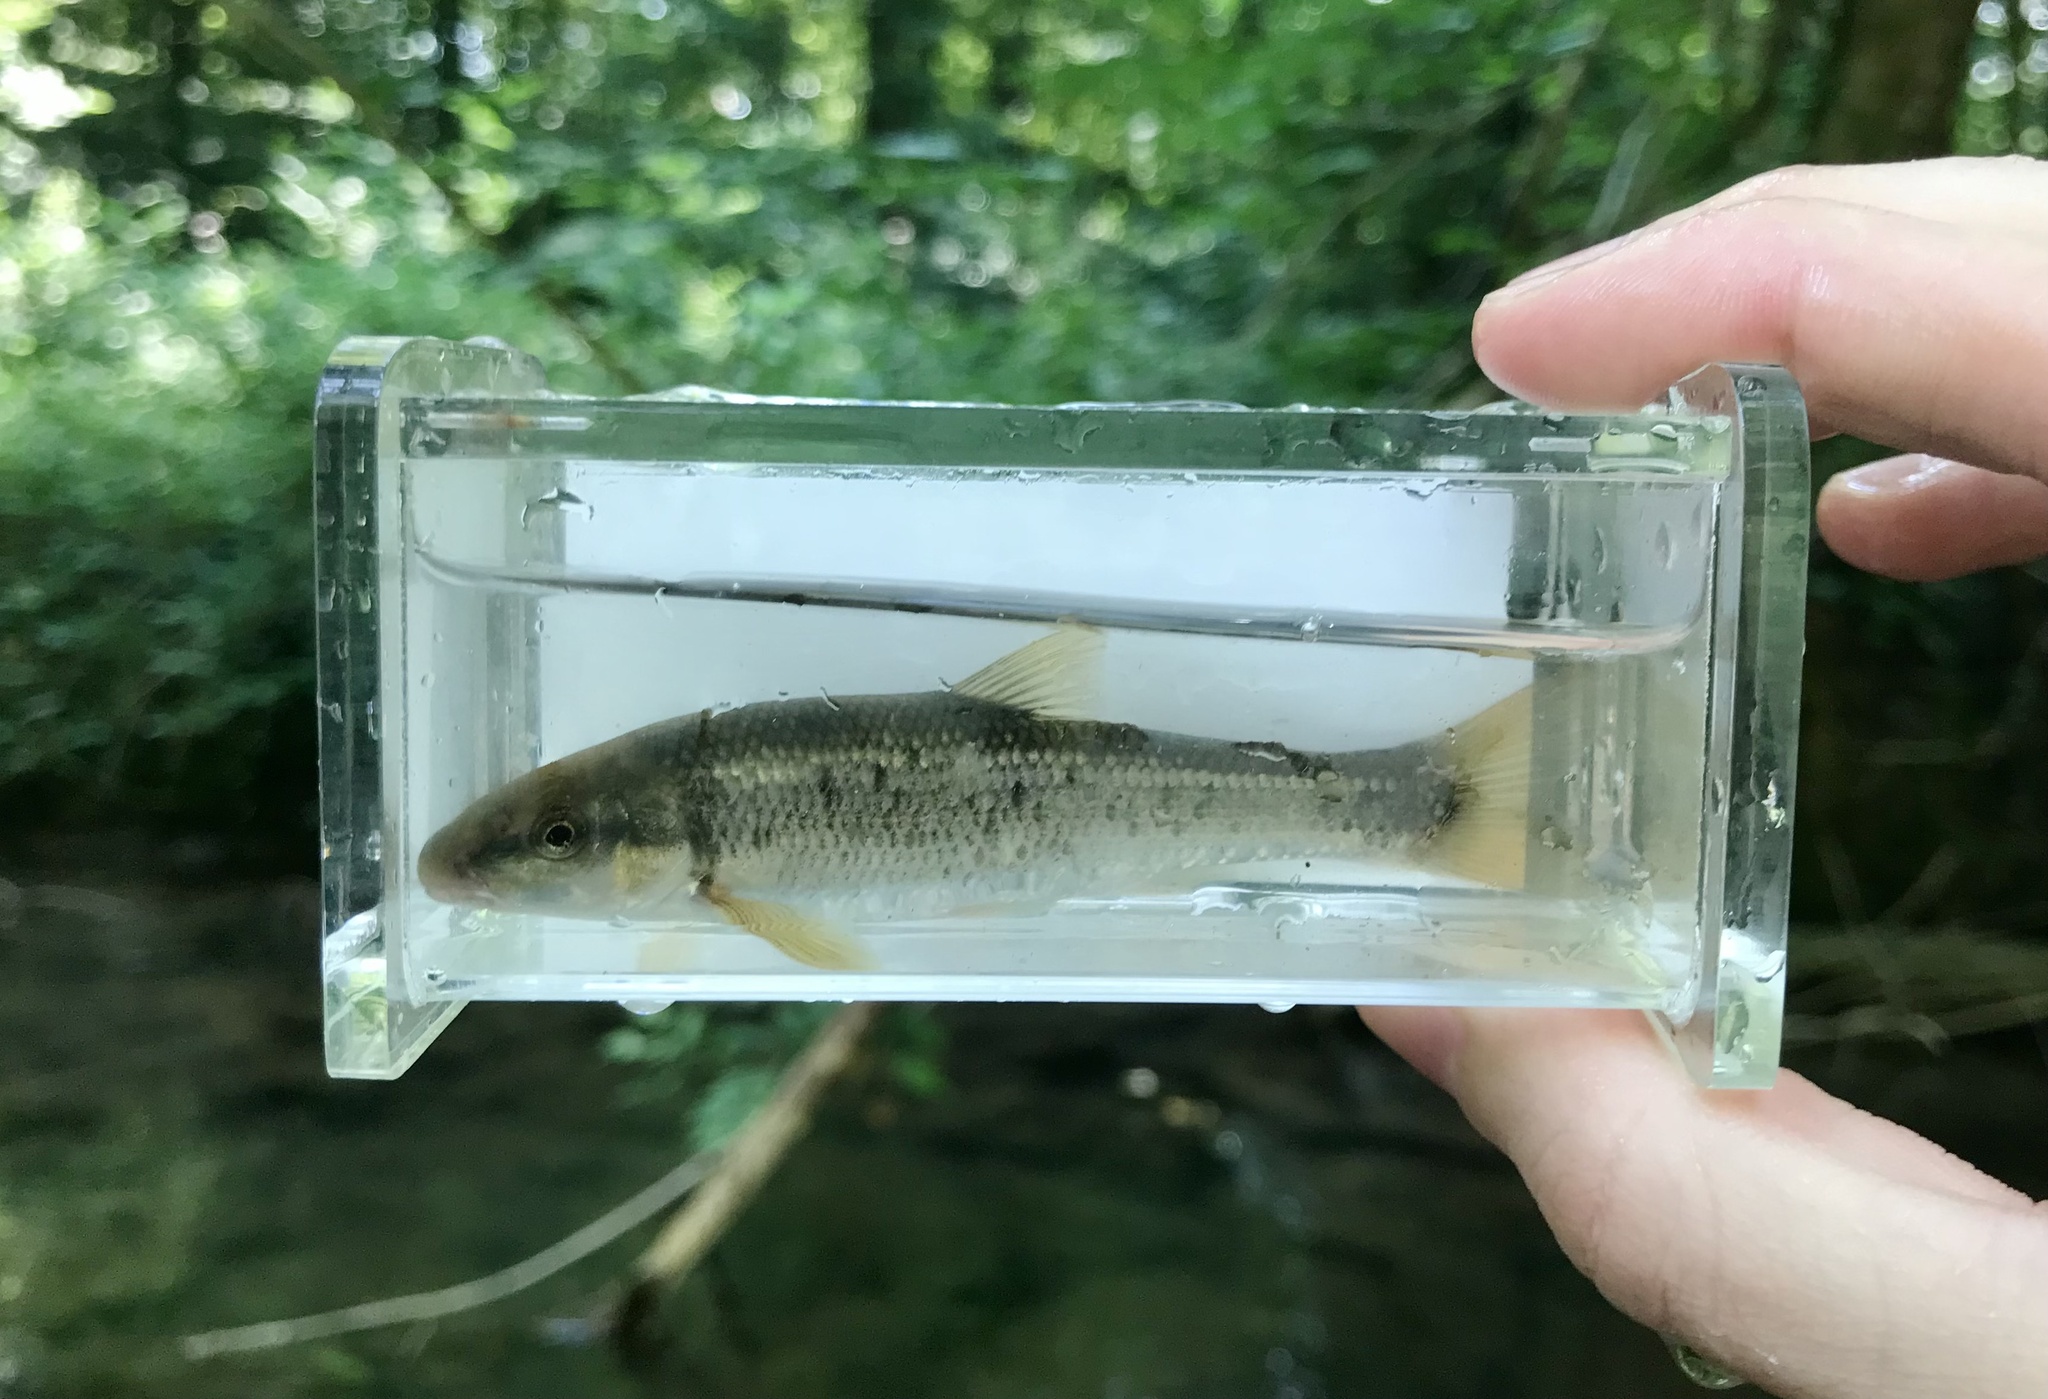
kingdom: Animalia
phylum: Chordata
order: Cypriniformes
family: Cyprinidae
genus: Campostoma
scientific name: Campostoma oligolepis
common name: Largescale stoneroller
